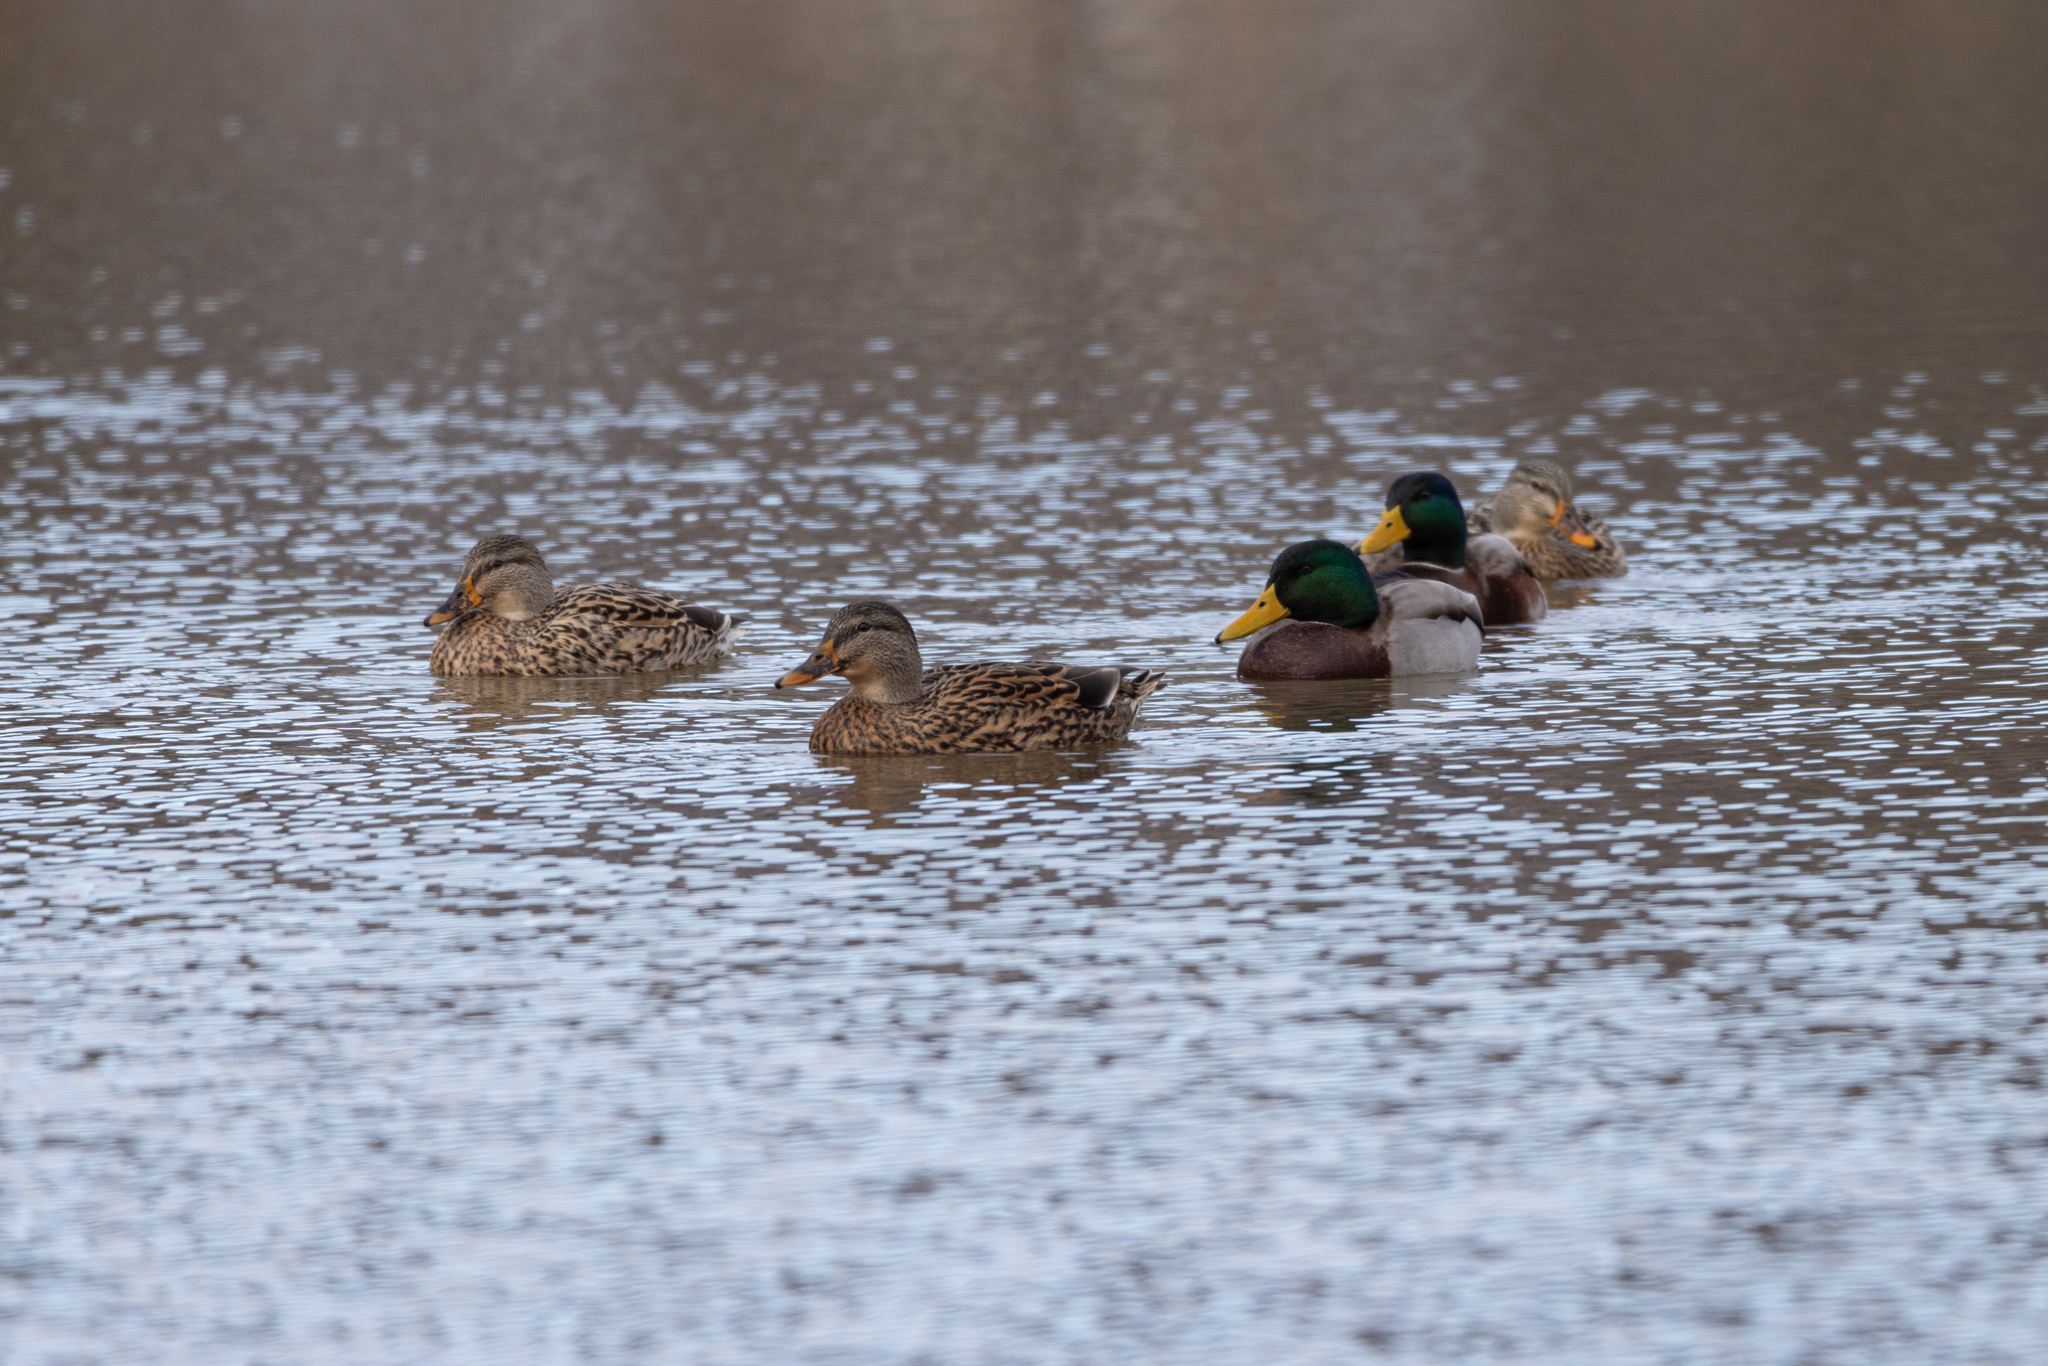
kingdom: Animalia
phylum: Chordata
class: Aves
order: Anseriformes
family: Anatidae
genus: Anas
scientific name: Anas platyrhynchos
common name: Mallard
